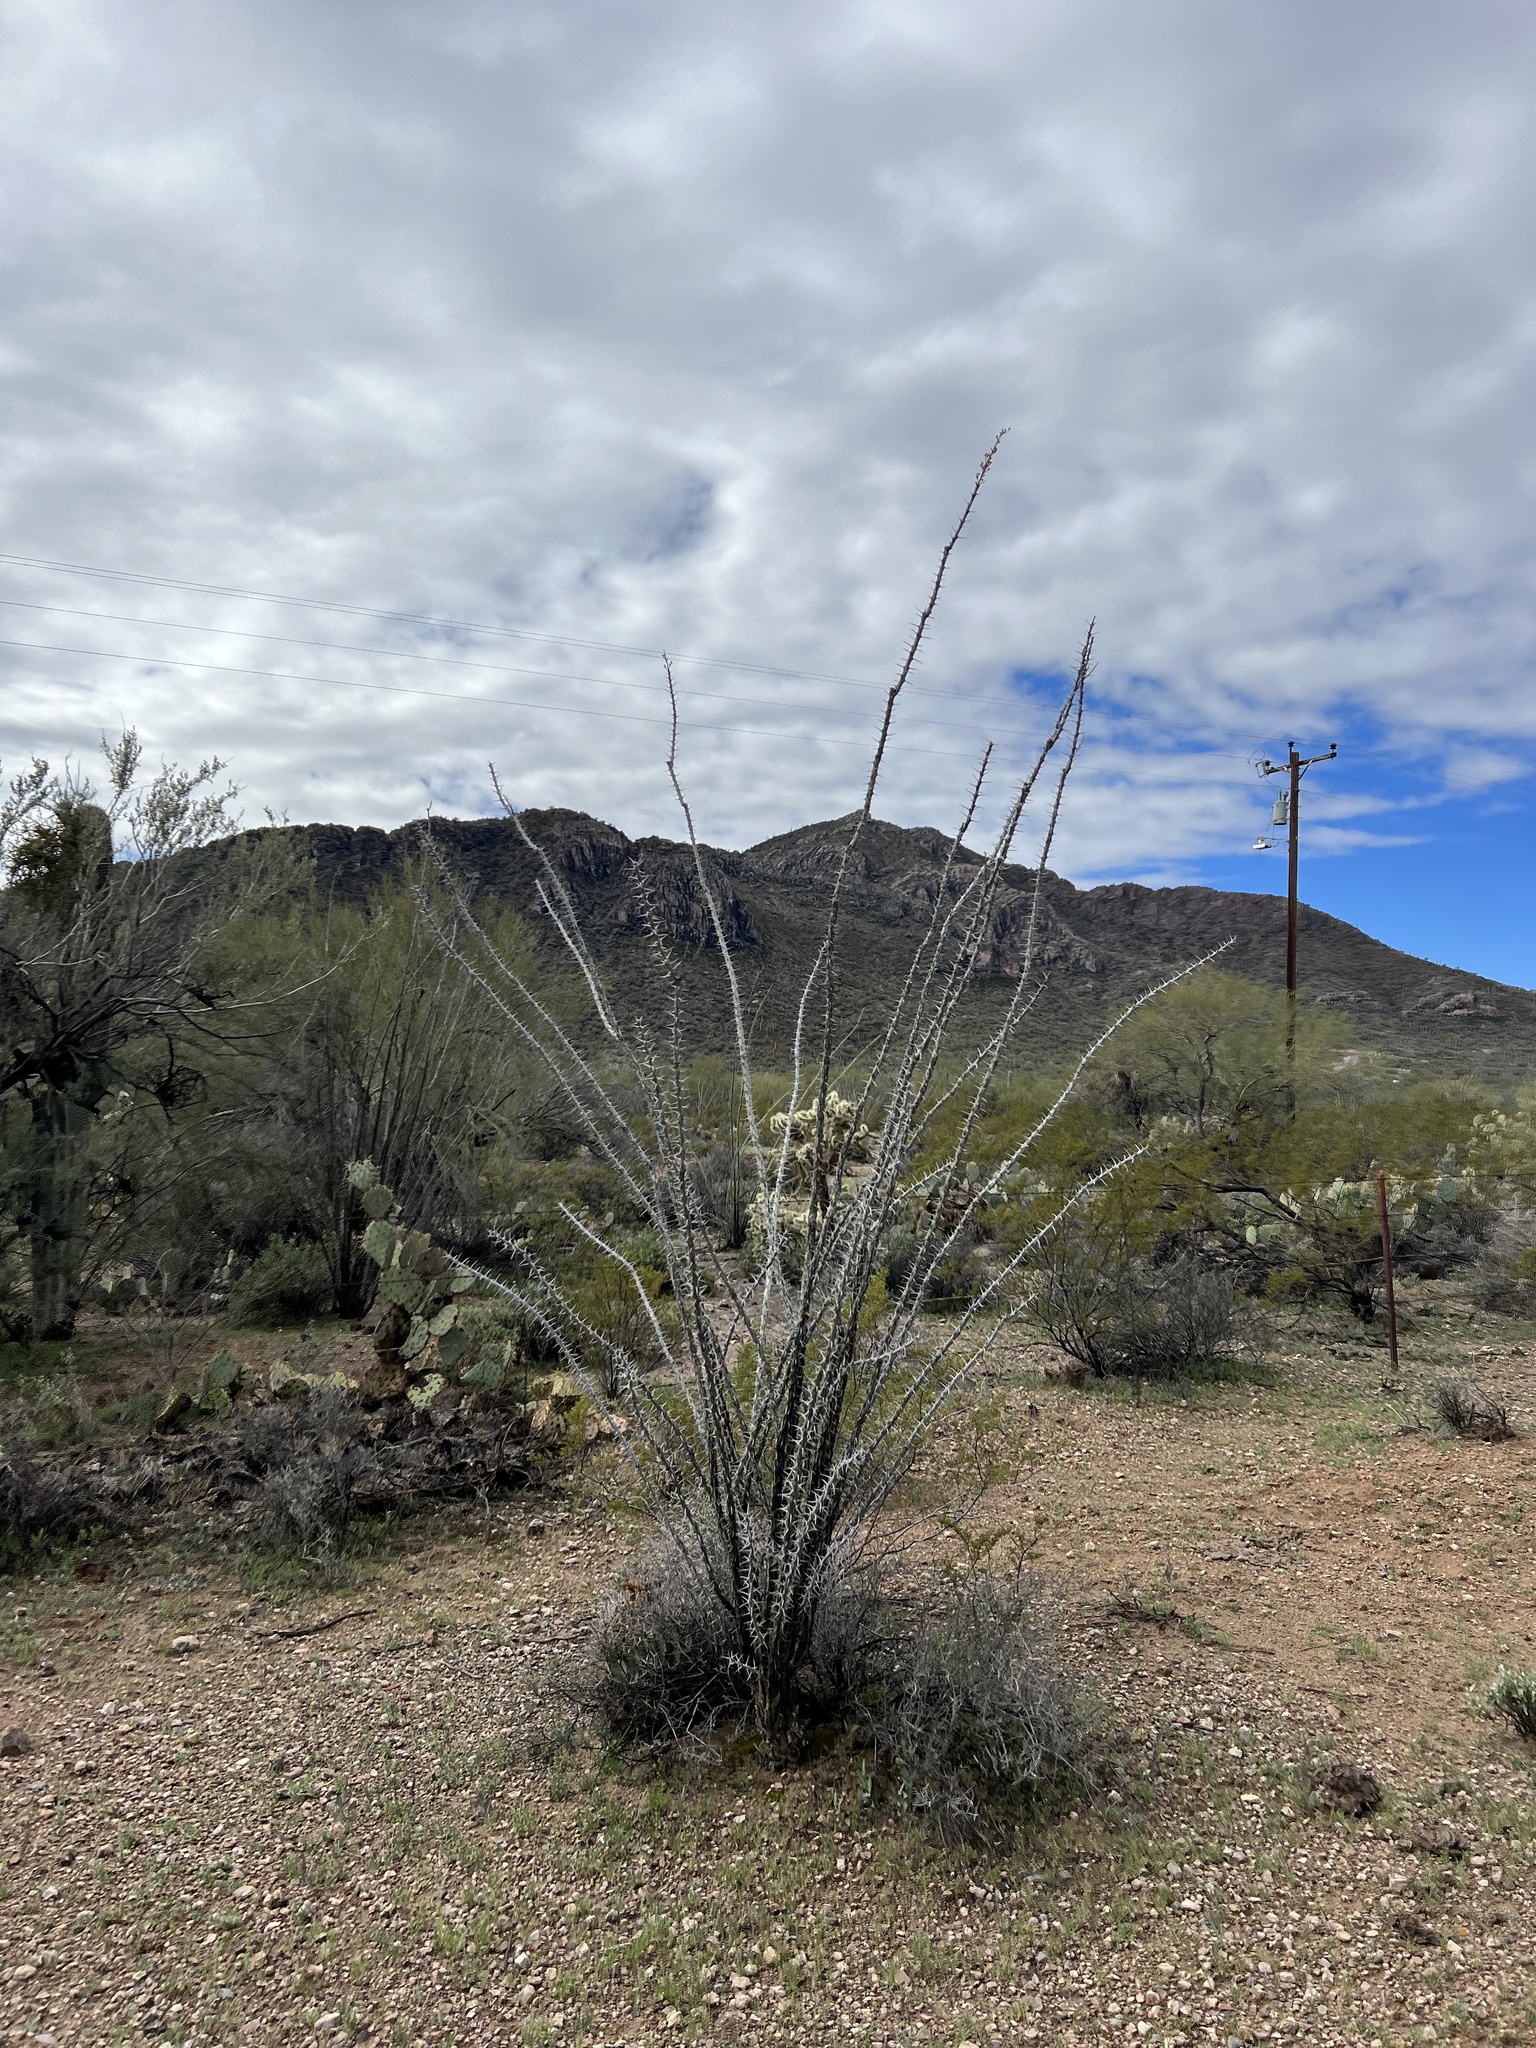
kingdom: Plantae
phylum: Tracheophyta
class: Magnoliopsida
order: Ericales
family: Fouquieriaceae
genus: Fouquieria
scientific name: Fouquieria splendens
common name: Vine-cactus
